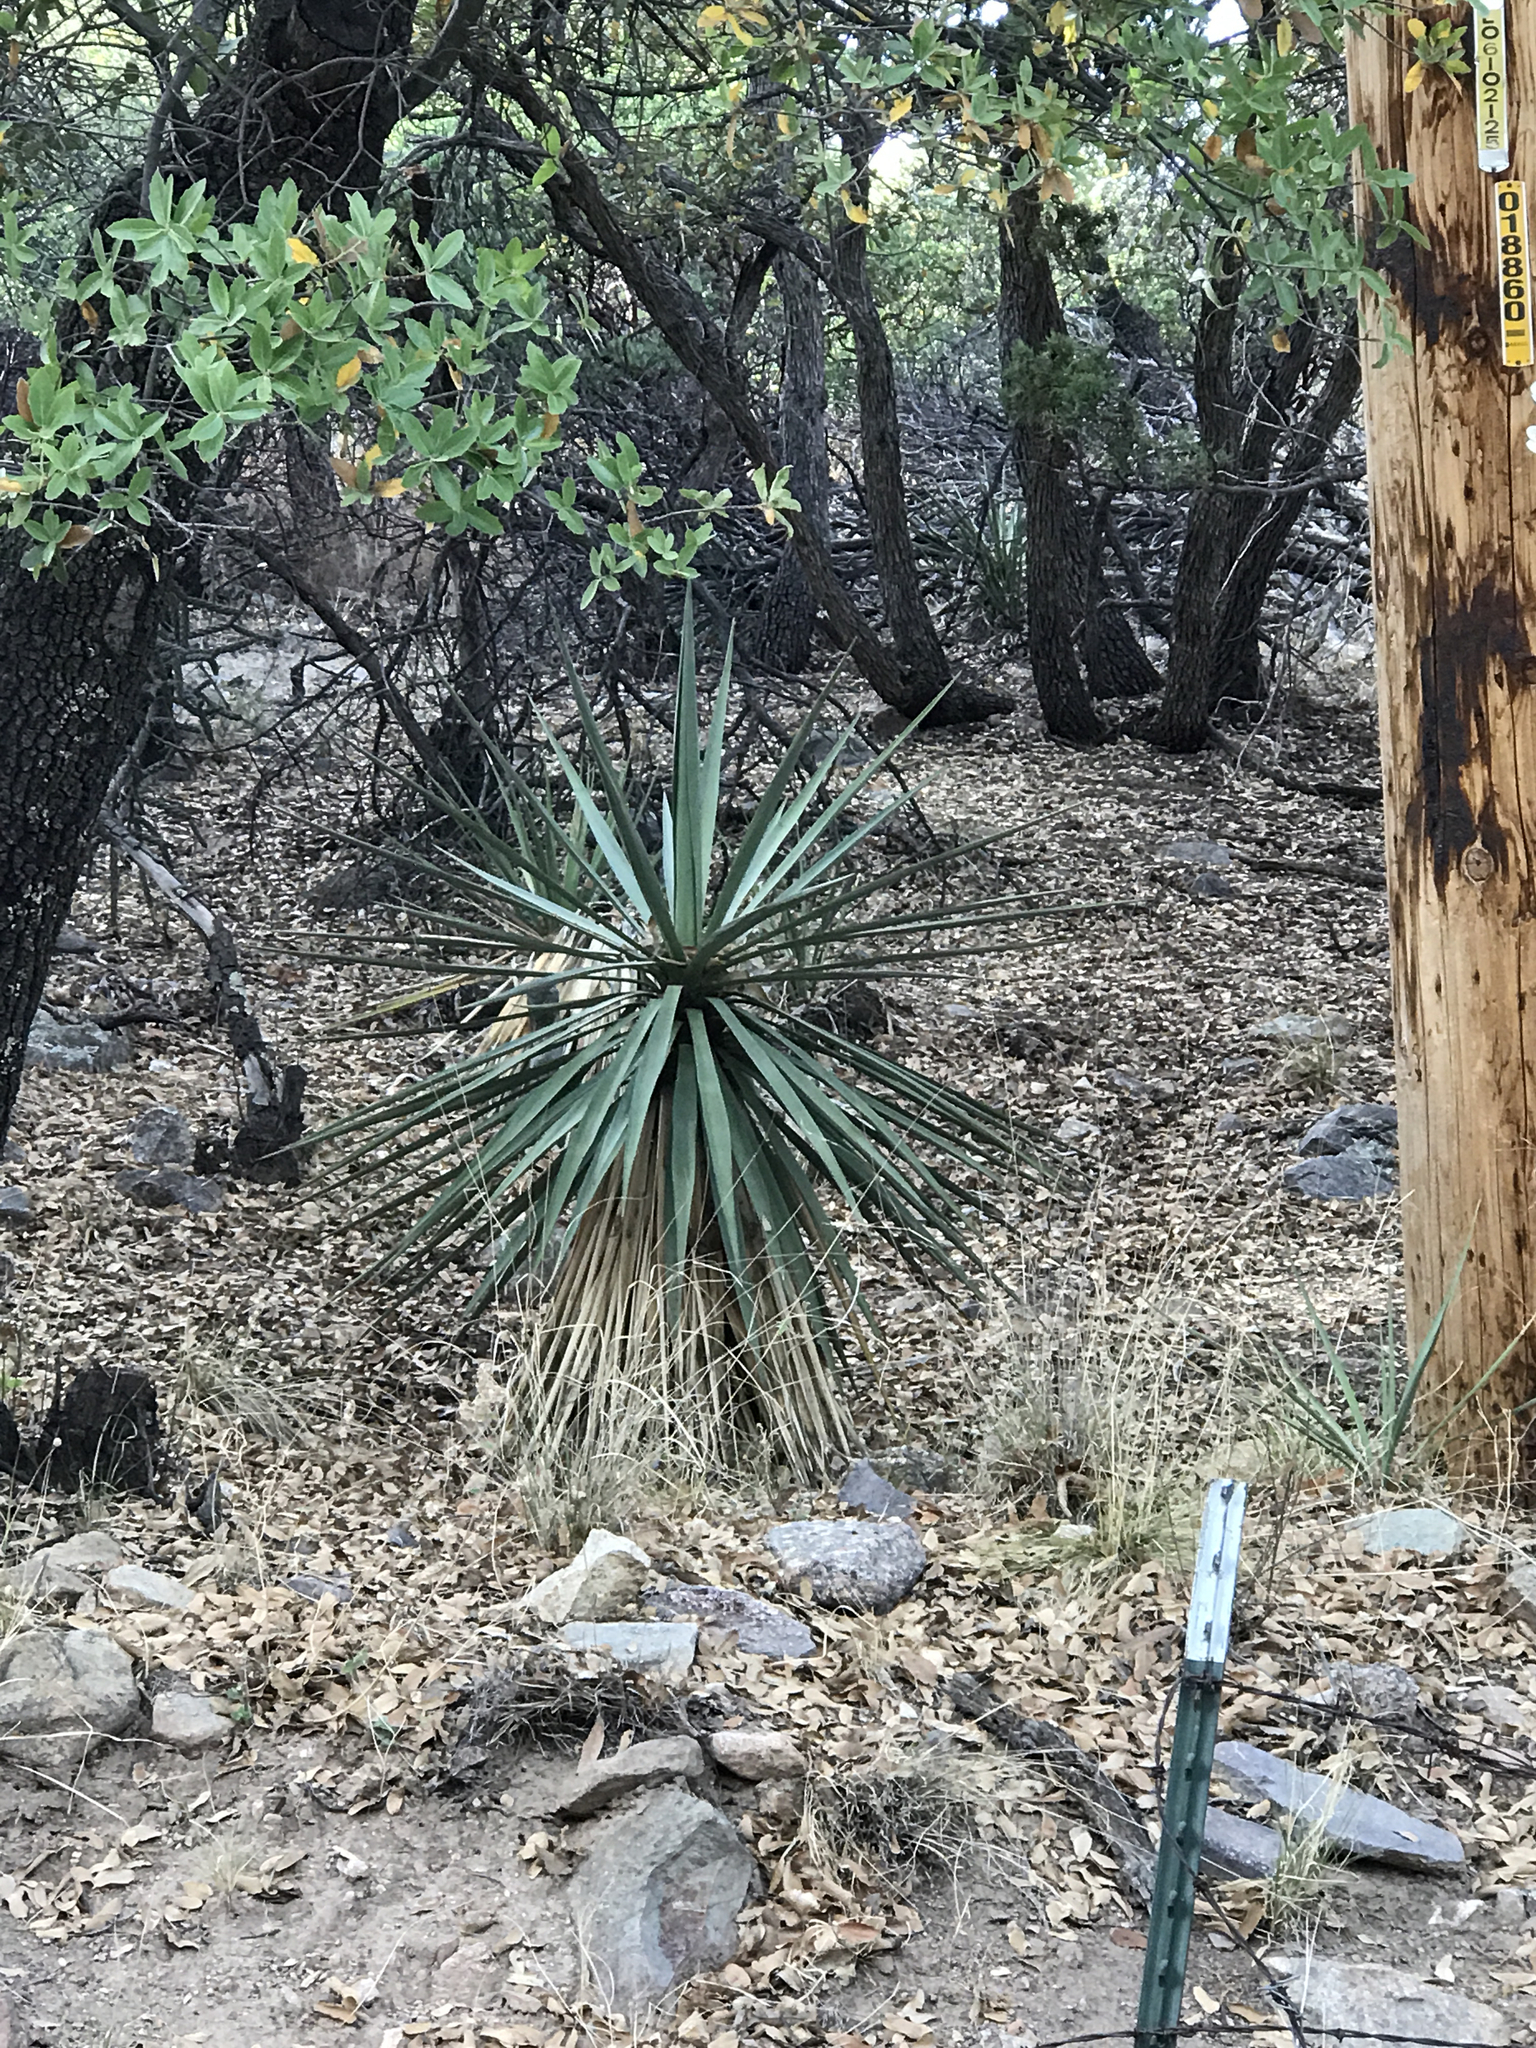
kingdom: Plantae
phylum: Tracheophyta
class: Liliopsida
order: Asparagales
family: Asparagaceae
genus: Yucca
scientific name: Yucca madrensis
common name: Hoary yucca
